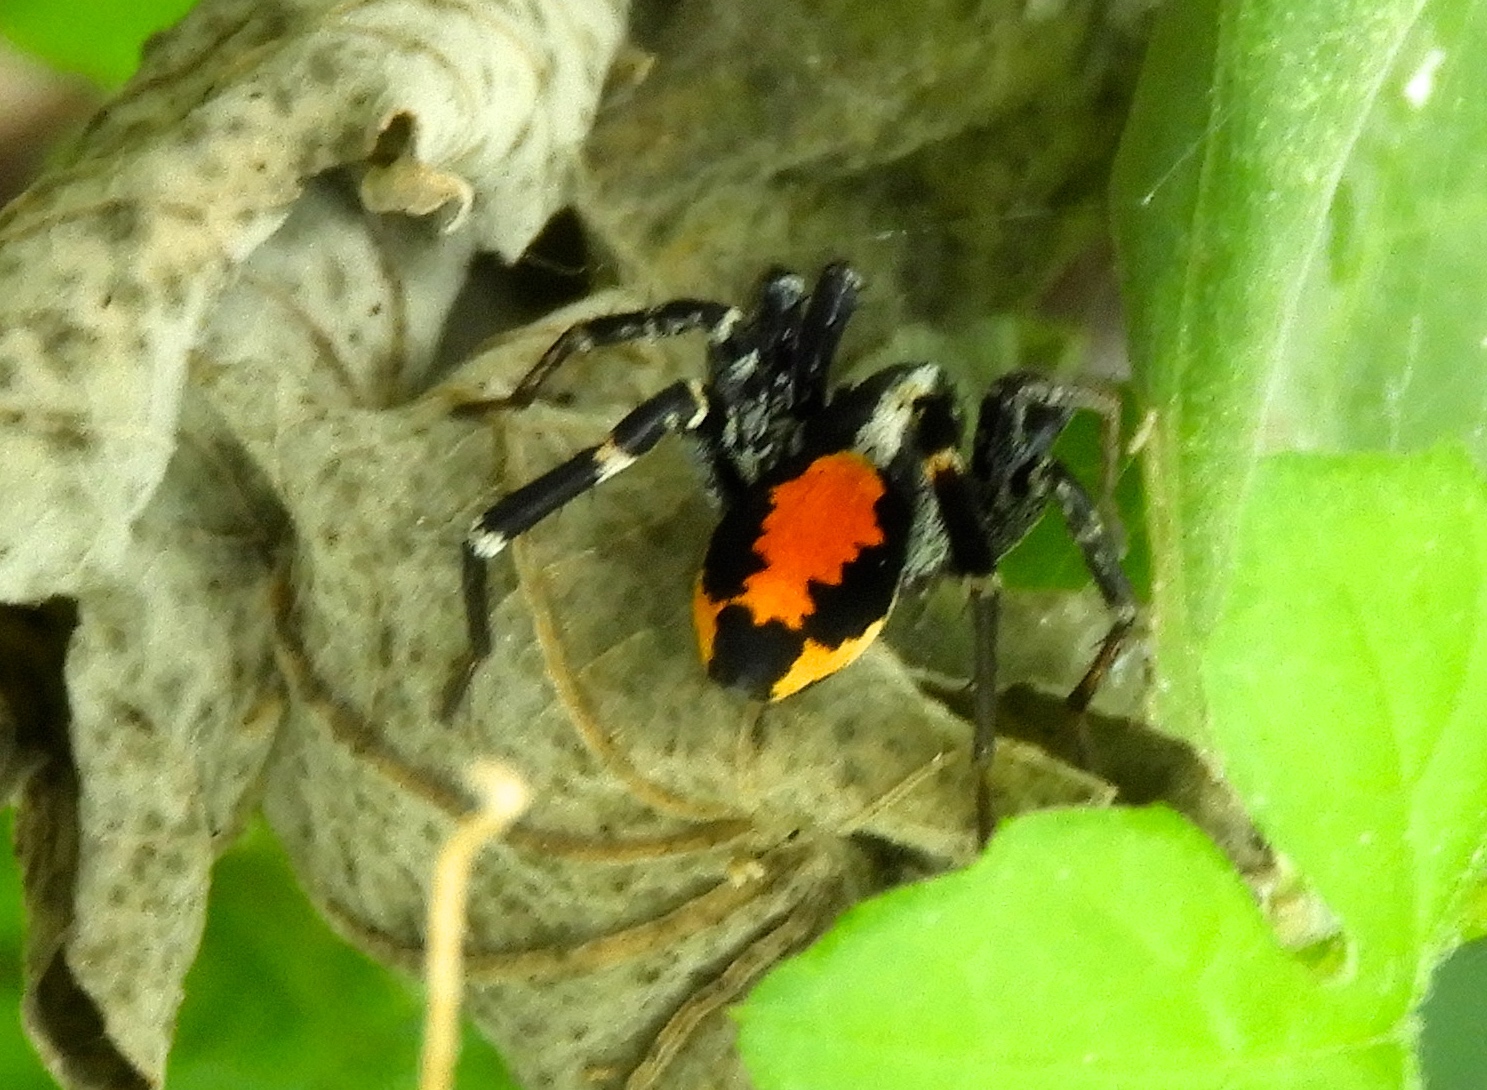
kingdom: Animalia
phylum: Arthropoda
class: Arachnida
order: Araneae
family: Corinnidae
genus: Castianeira
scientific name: Castianeira
